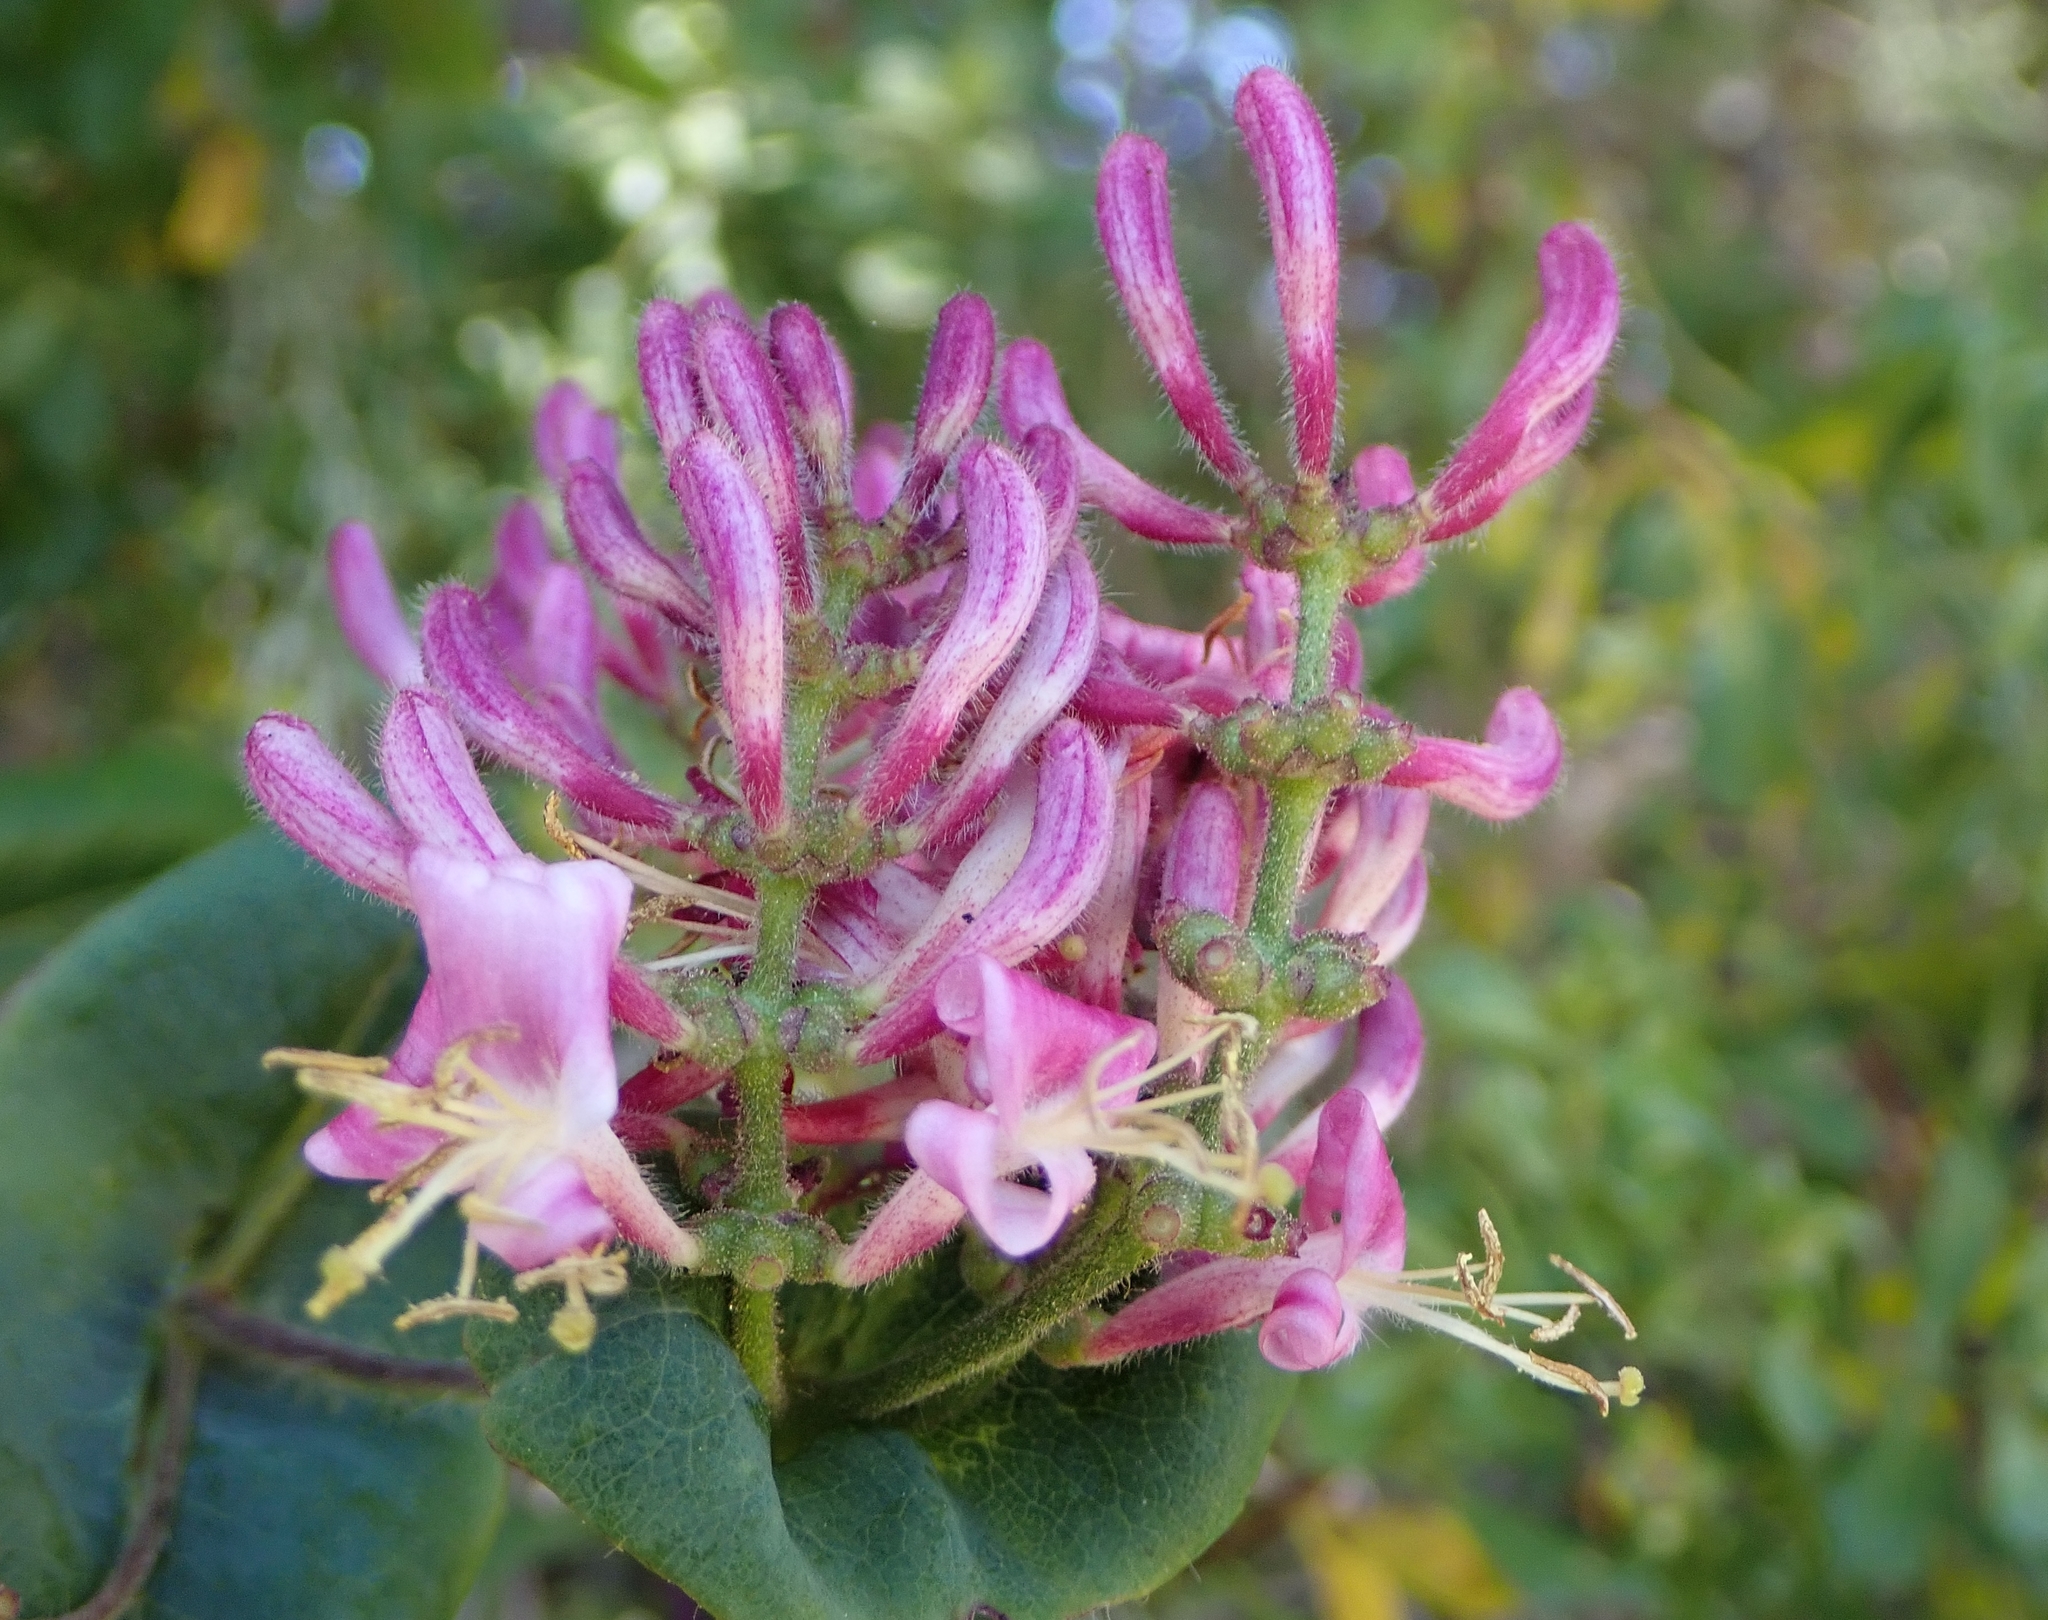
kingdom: Plantae
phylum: Tracheophyta
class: Magnoliopsida
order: Dipsacales
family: Caprifoliaceae
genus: Lonicera
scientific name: Lonicera hispidula
